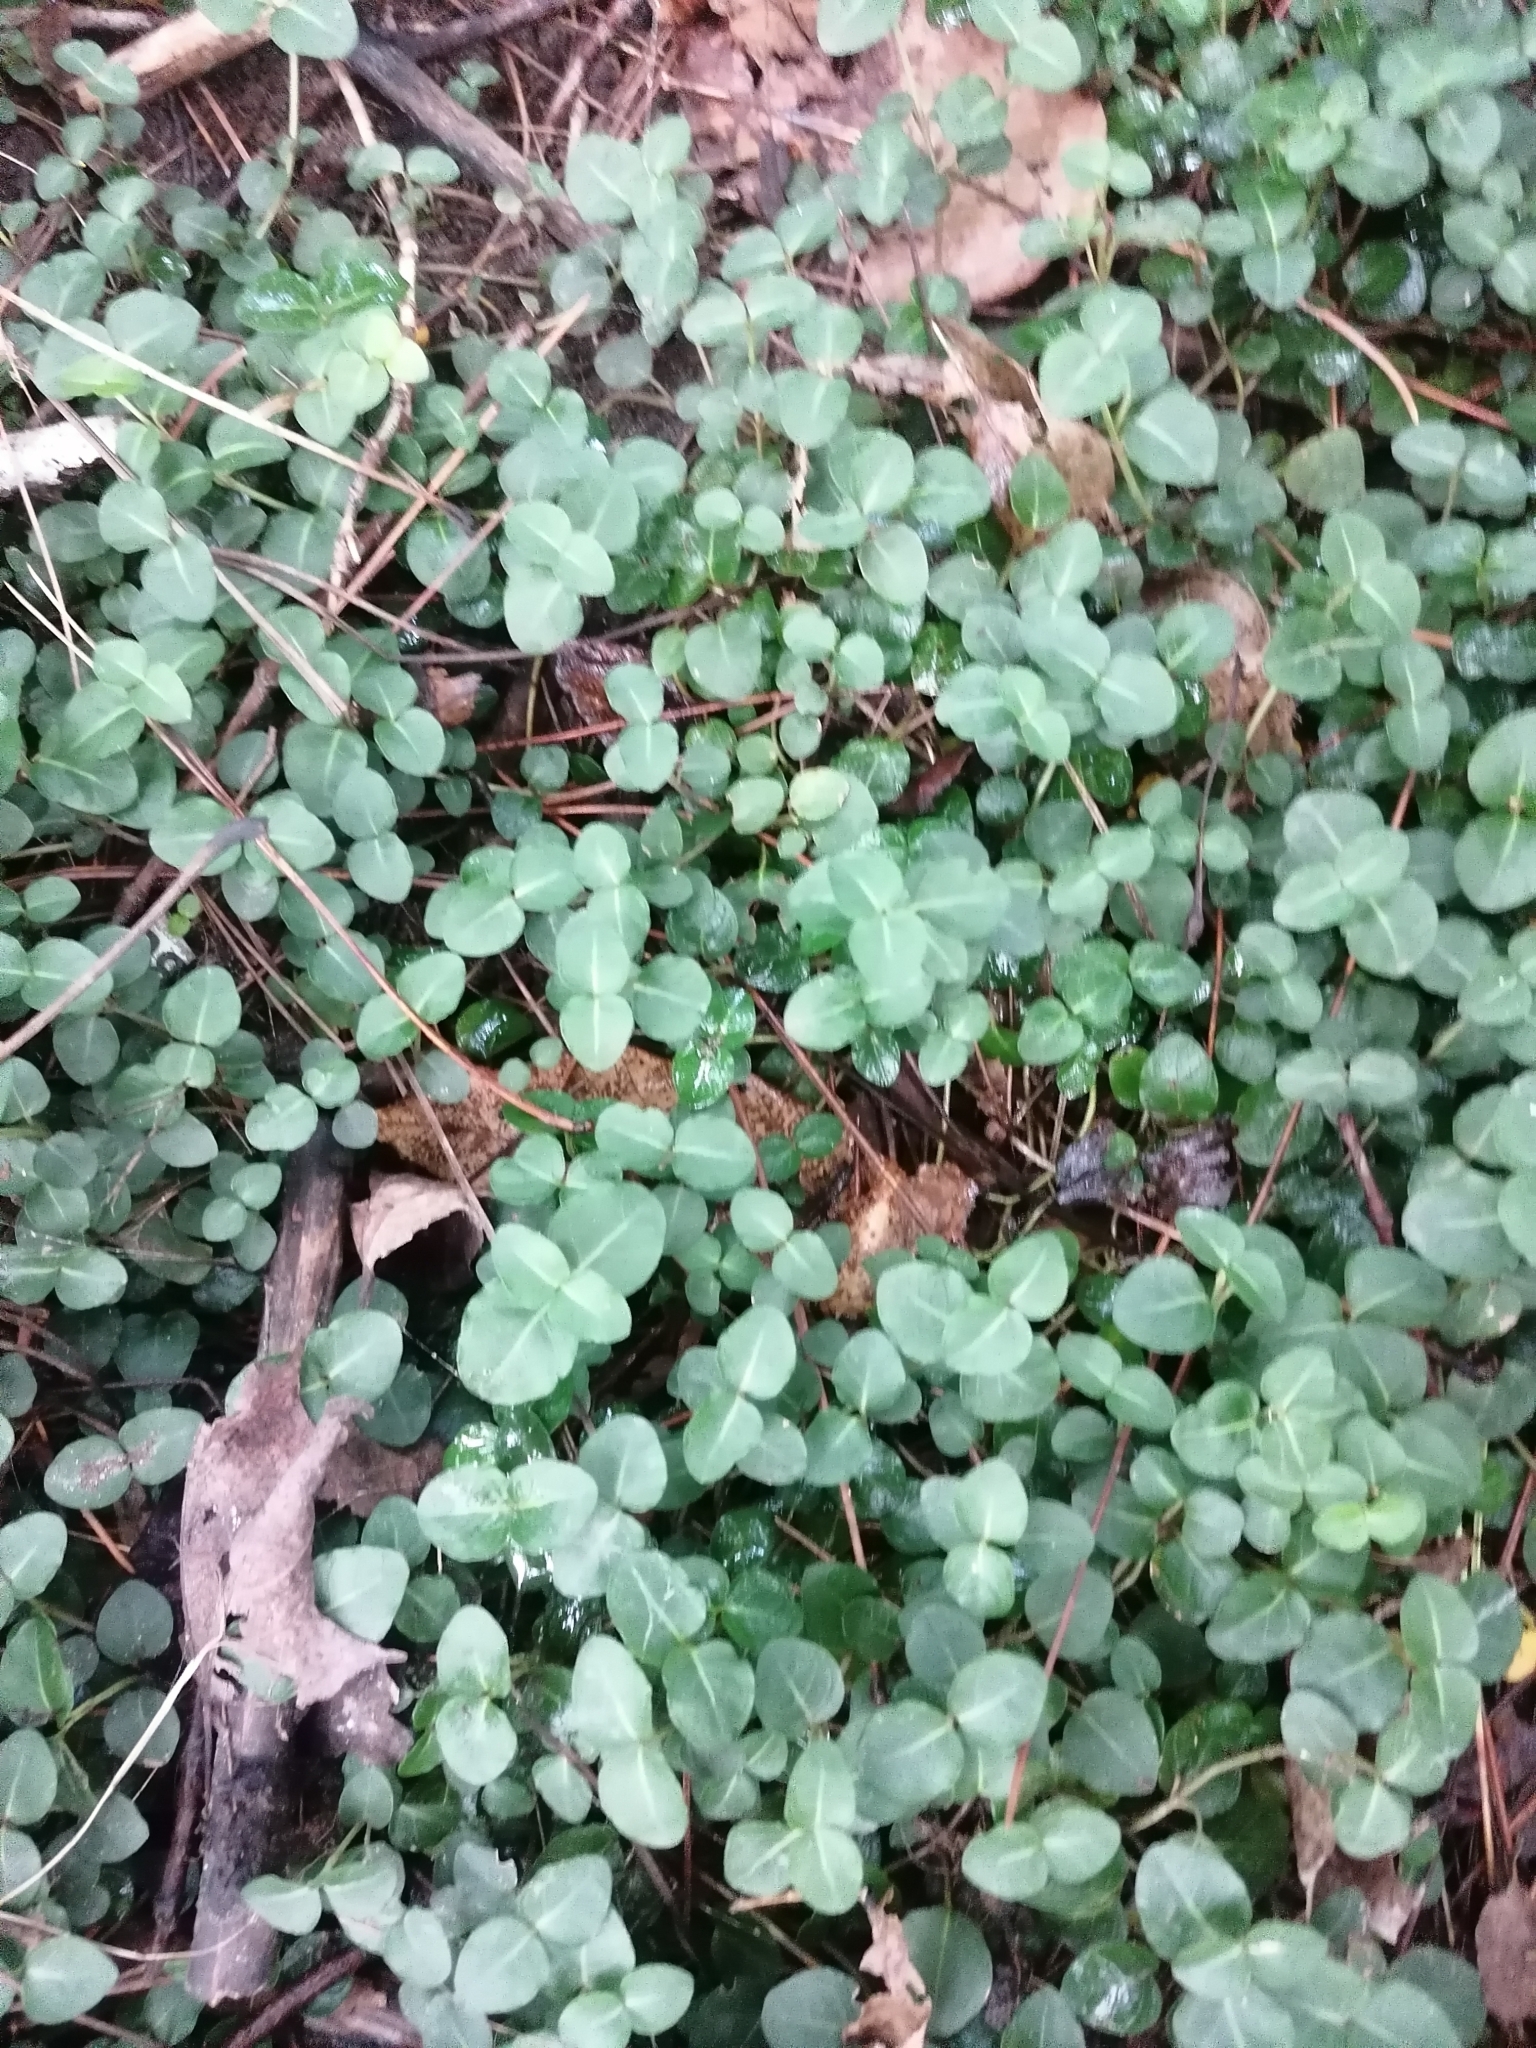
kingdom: Plantae
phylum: Tracheophyta
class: Magnoliopsida
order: Gentianales
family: Rubiaceae
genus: Mitchella
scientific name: Mitchella repens
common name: Partridge-berry
